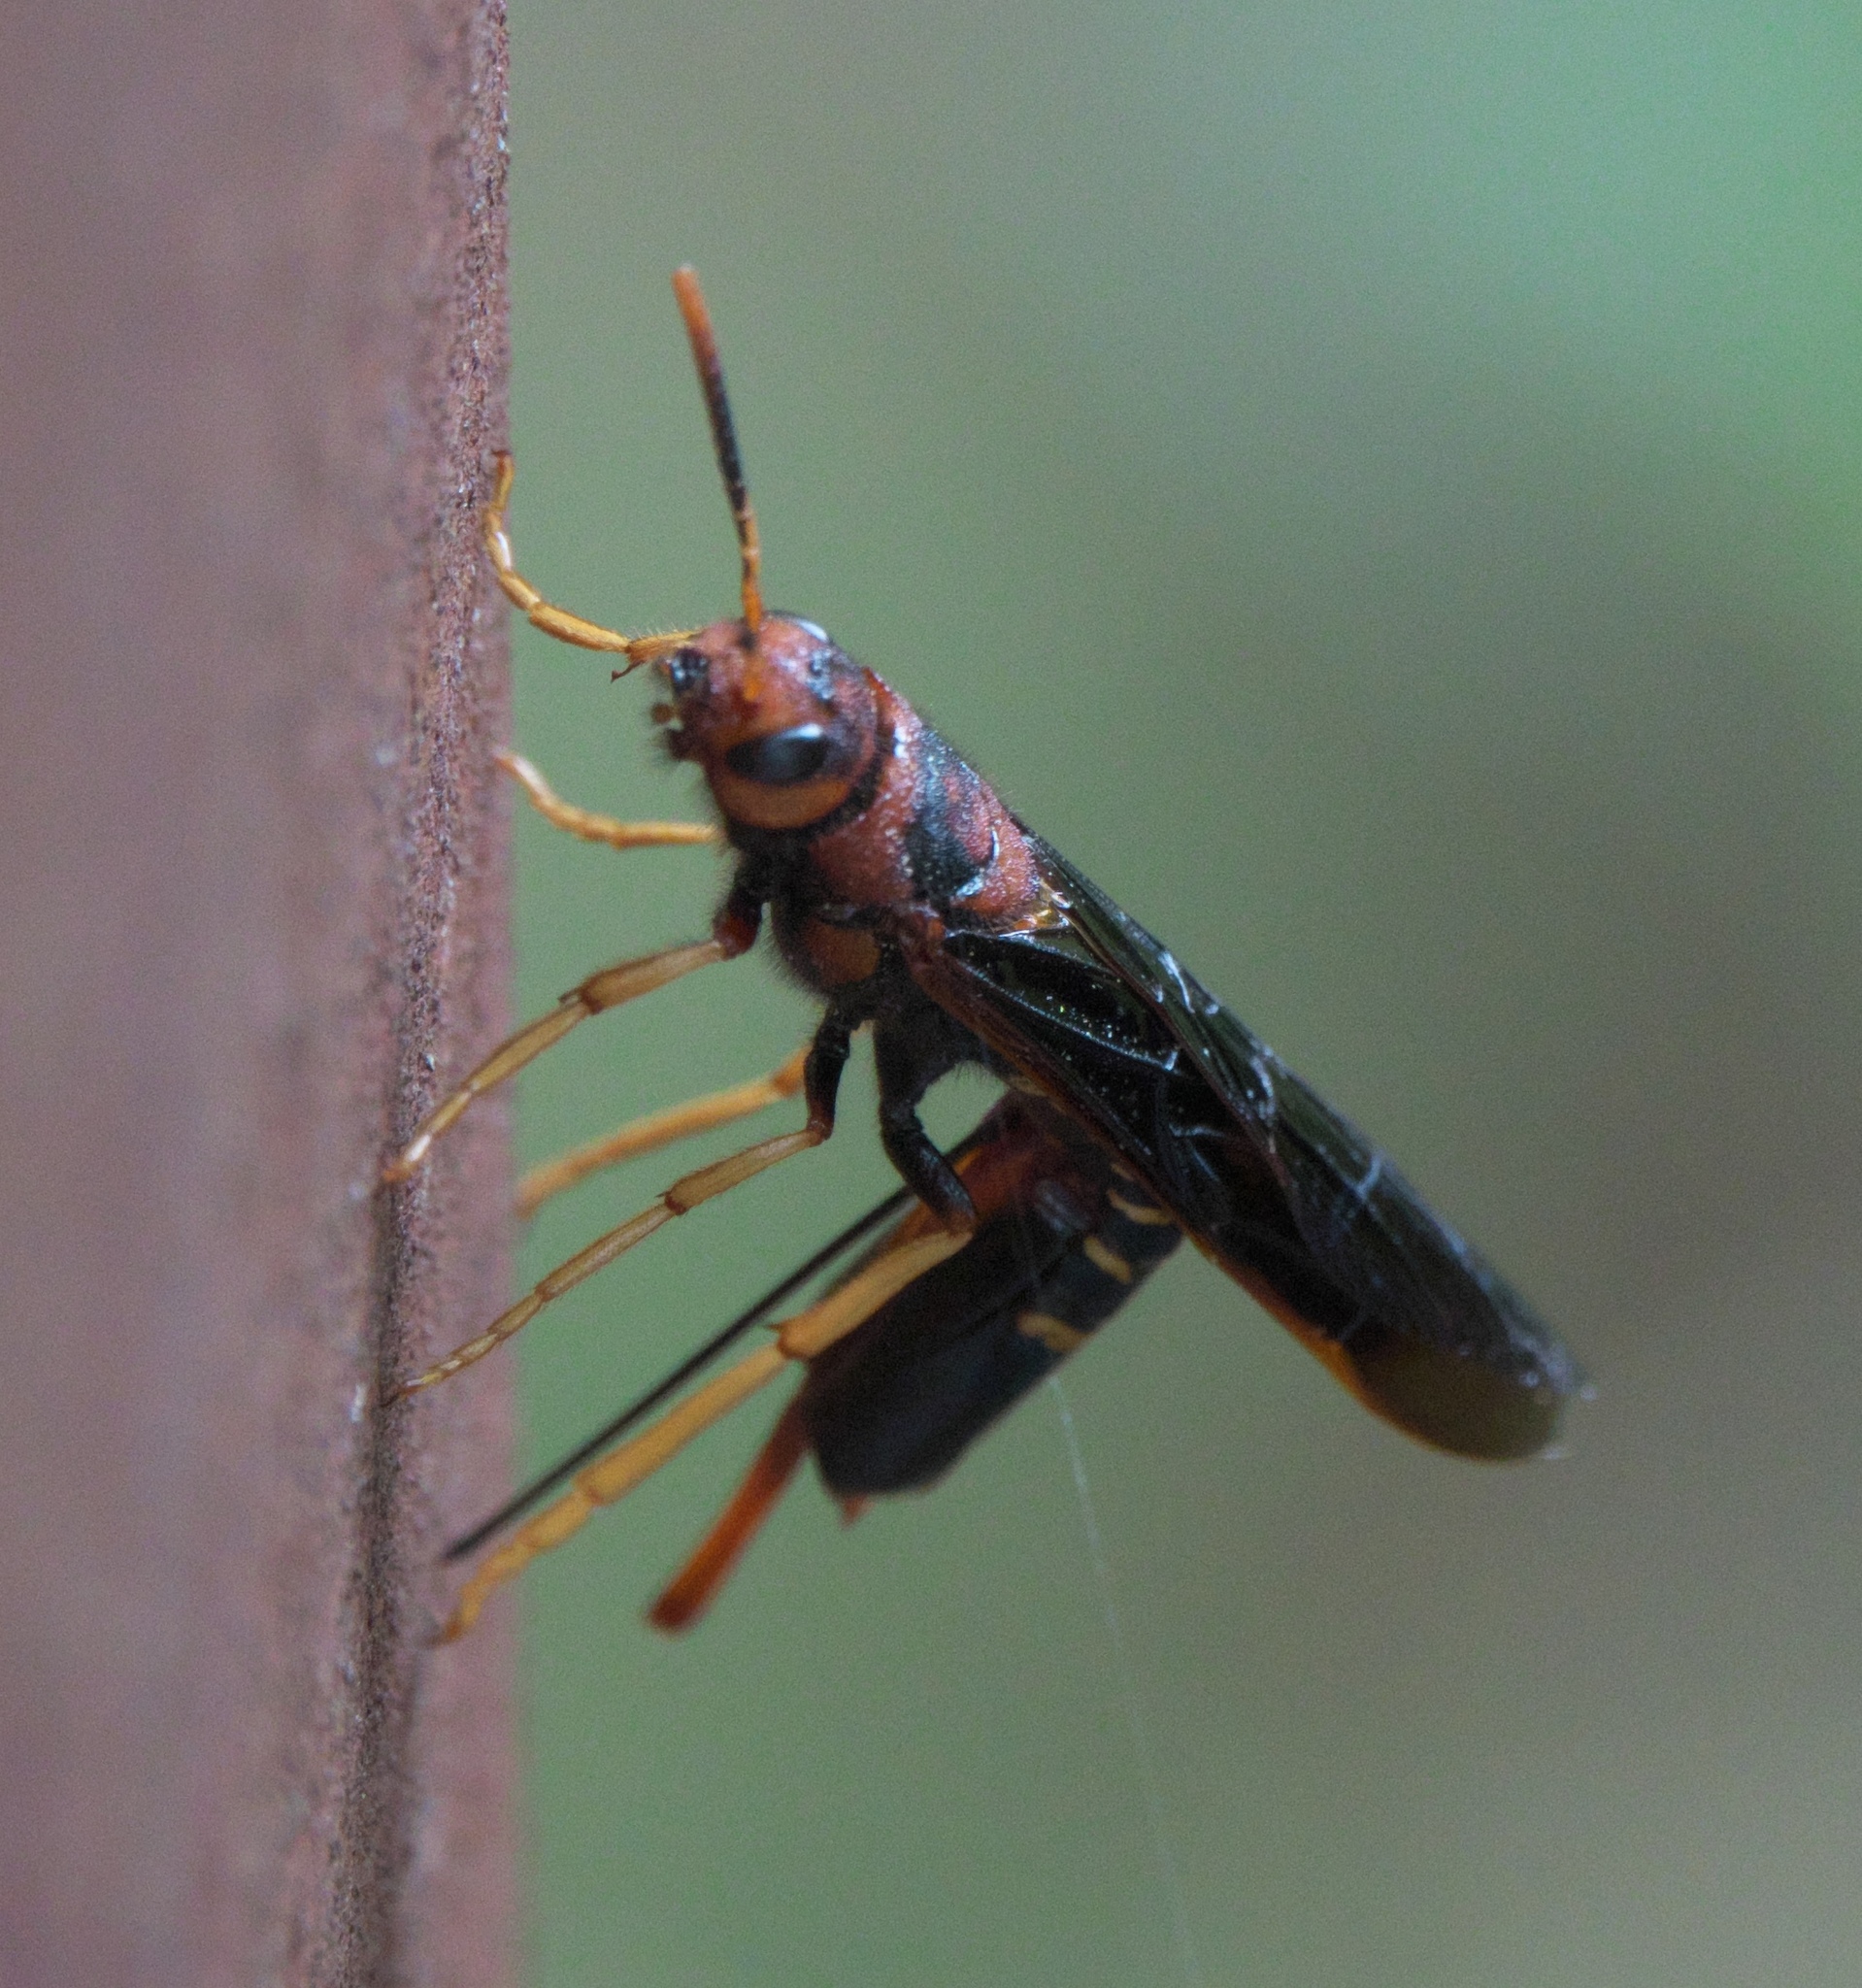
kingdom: Animalia
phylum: Arthropoda
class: Insecta
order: Hymenoptera
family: Siricidae
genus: Tremex
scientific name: Tremex columba
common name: Wasp
